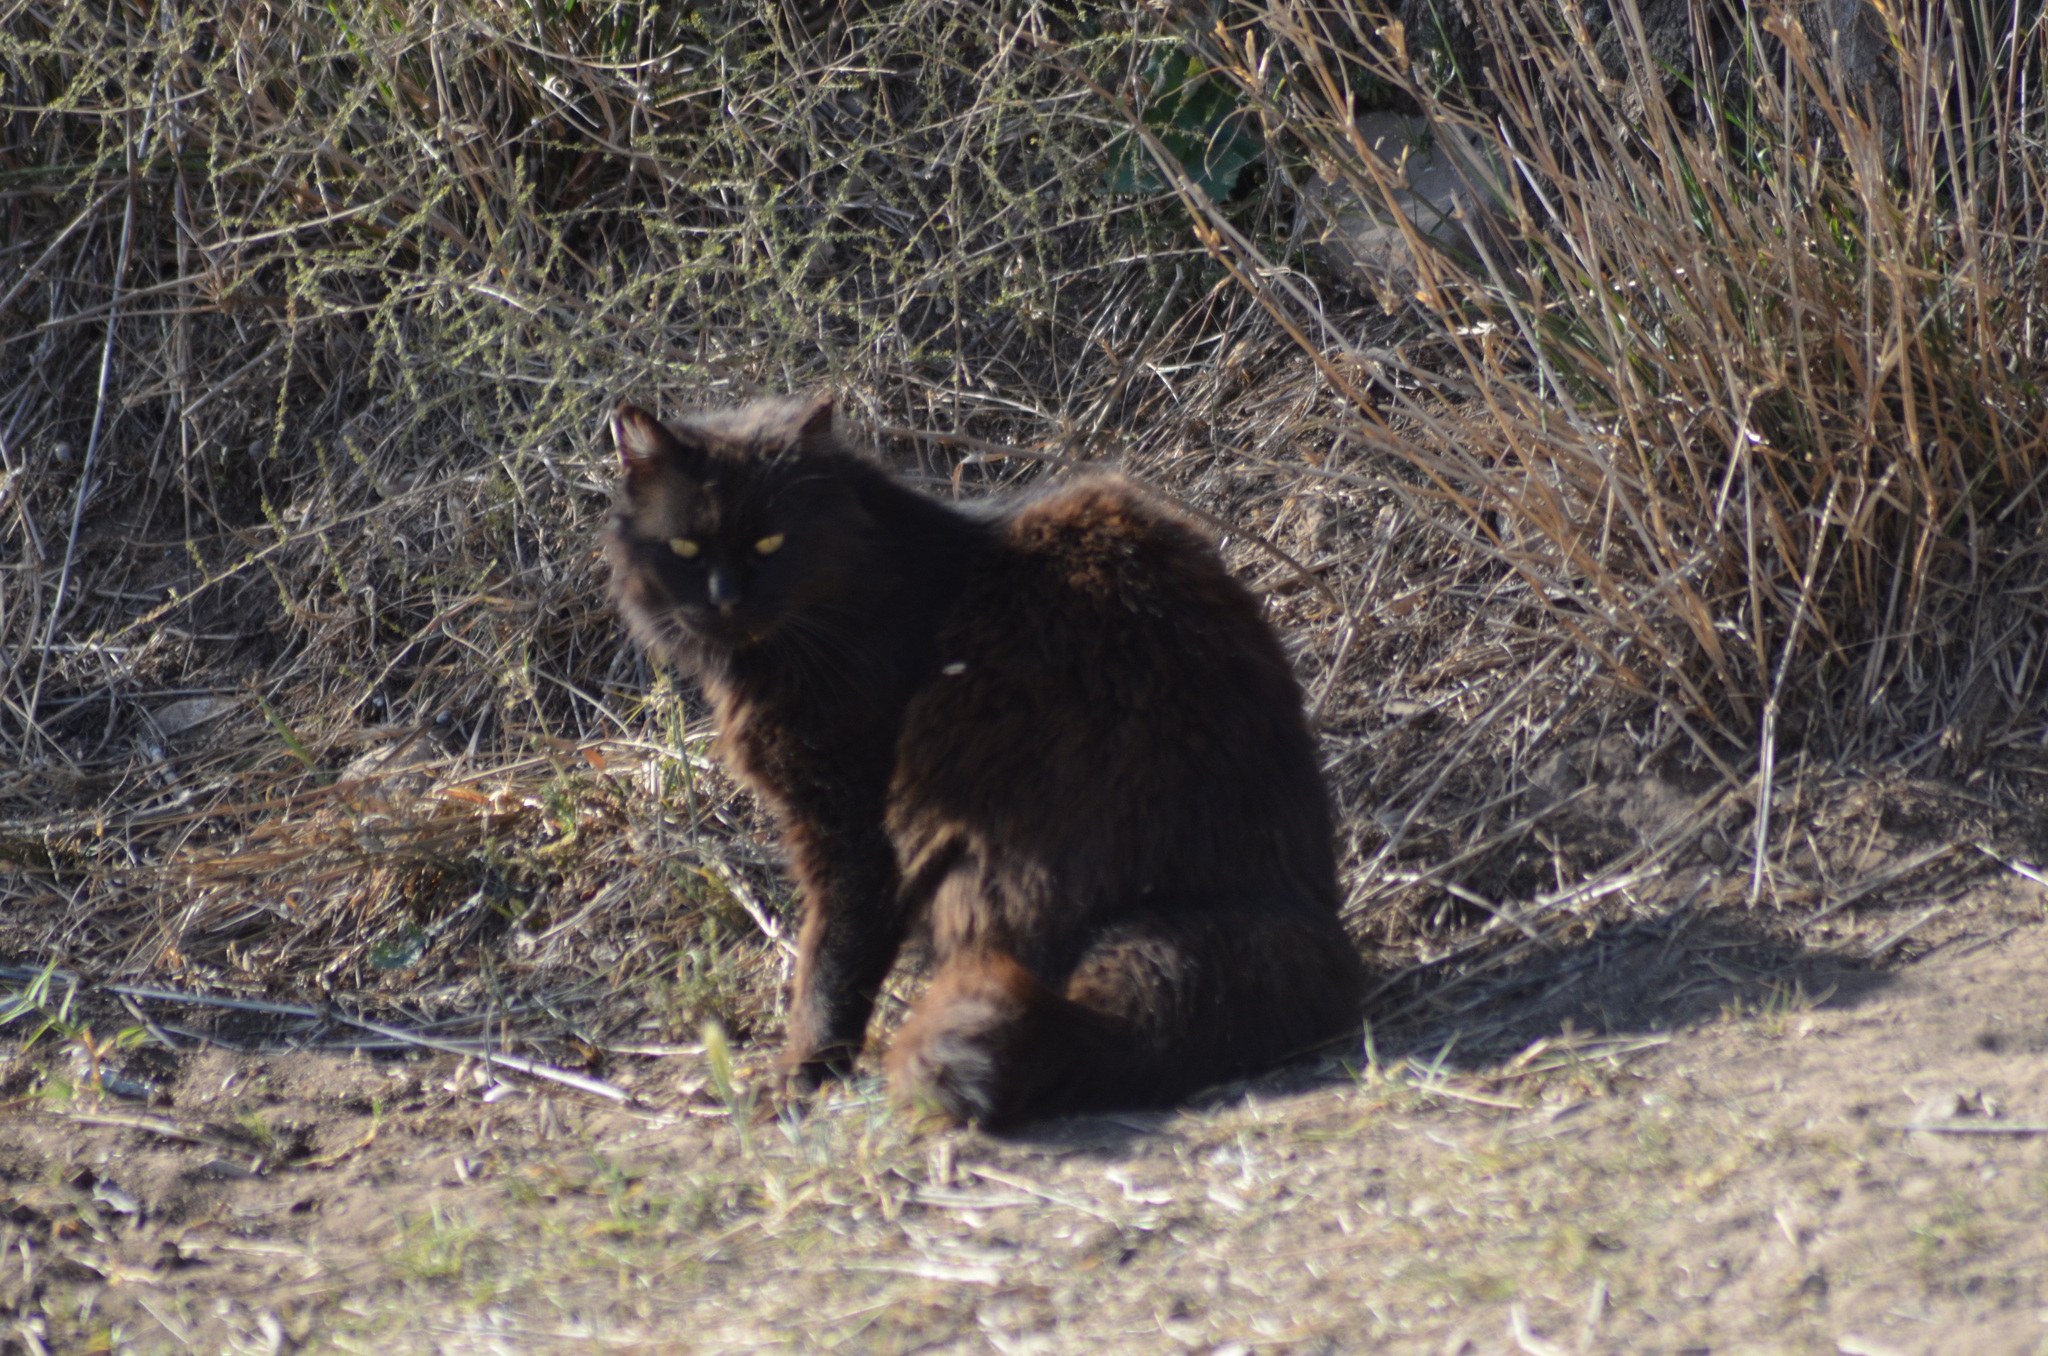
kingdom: Animalia
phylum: Chordata
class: Mammalia
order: Carnivora
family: Felidae
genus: Felis
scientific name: Felis catus
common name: Domestic cat
